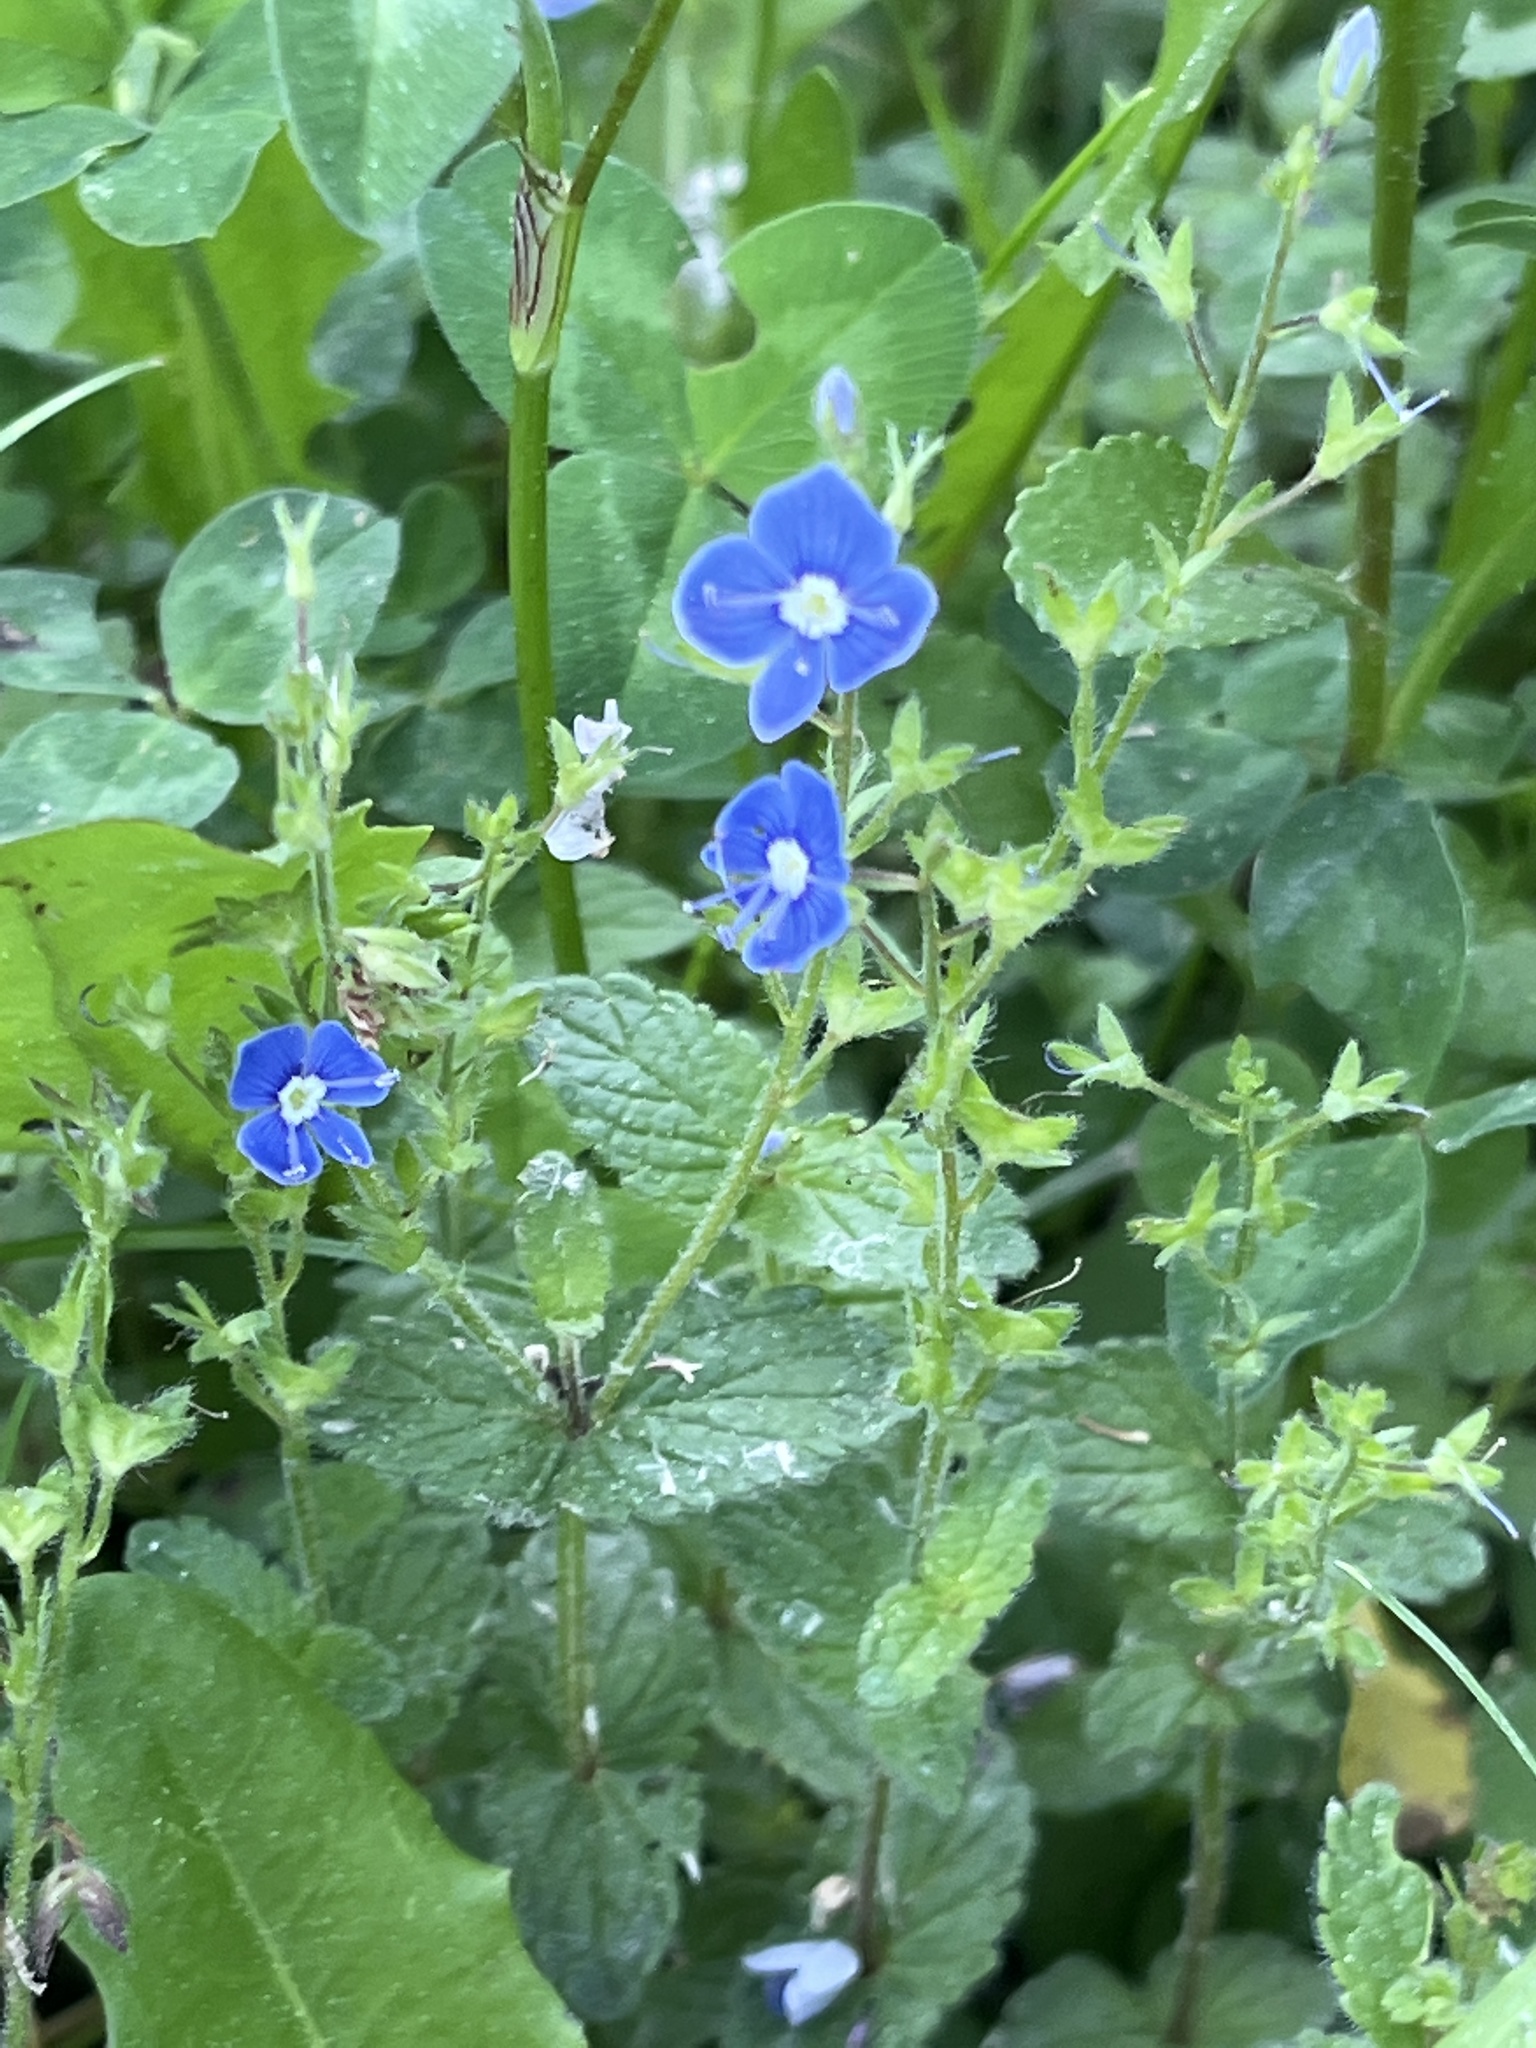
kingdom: Plantae
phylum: Tracheophyta
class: Magnoliopsida
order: Lamiales
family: Plantaginaceae
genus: Veronica
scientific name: Veronica chamaedrys
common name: Germander speedwell
